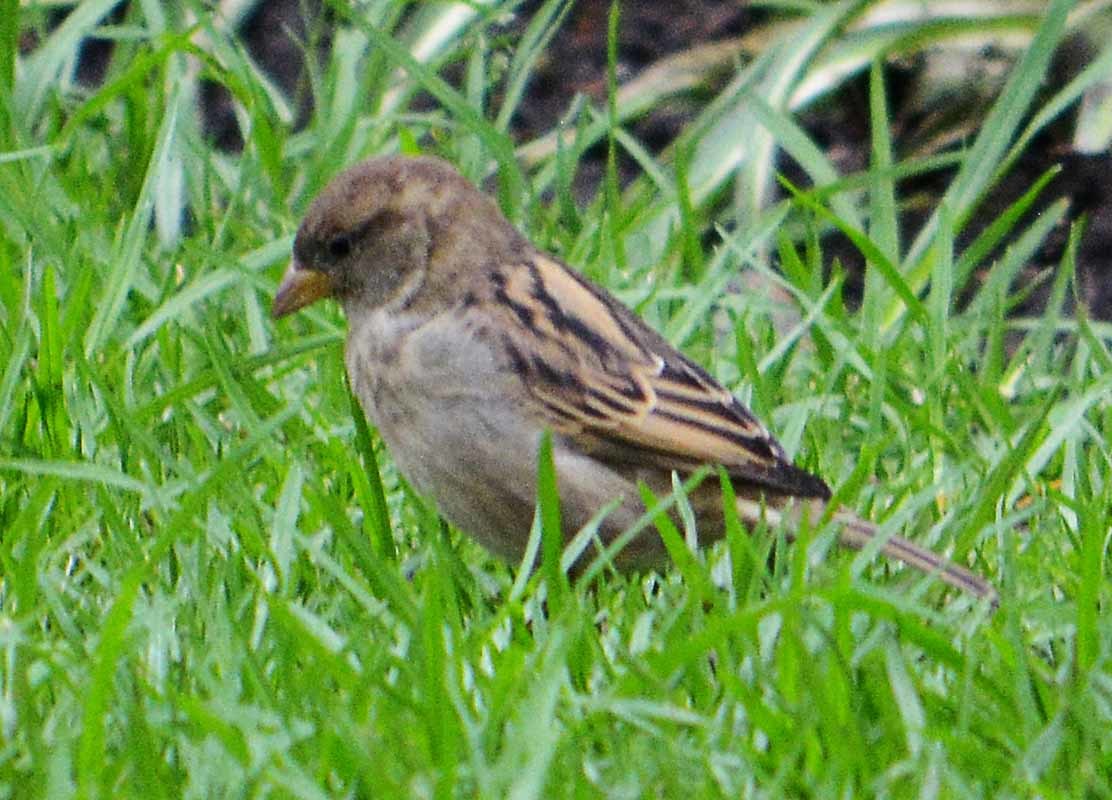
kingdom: Animalia
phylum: Chordata
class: Aves
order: Passeriformes
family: Passeridae
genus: Passer
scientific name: Passer domesticus
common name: House sparrow
